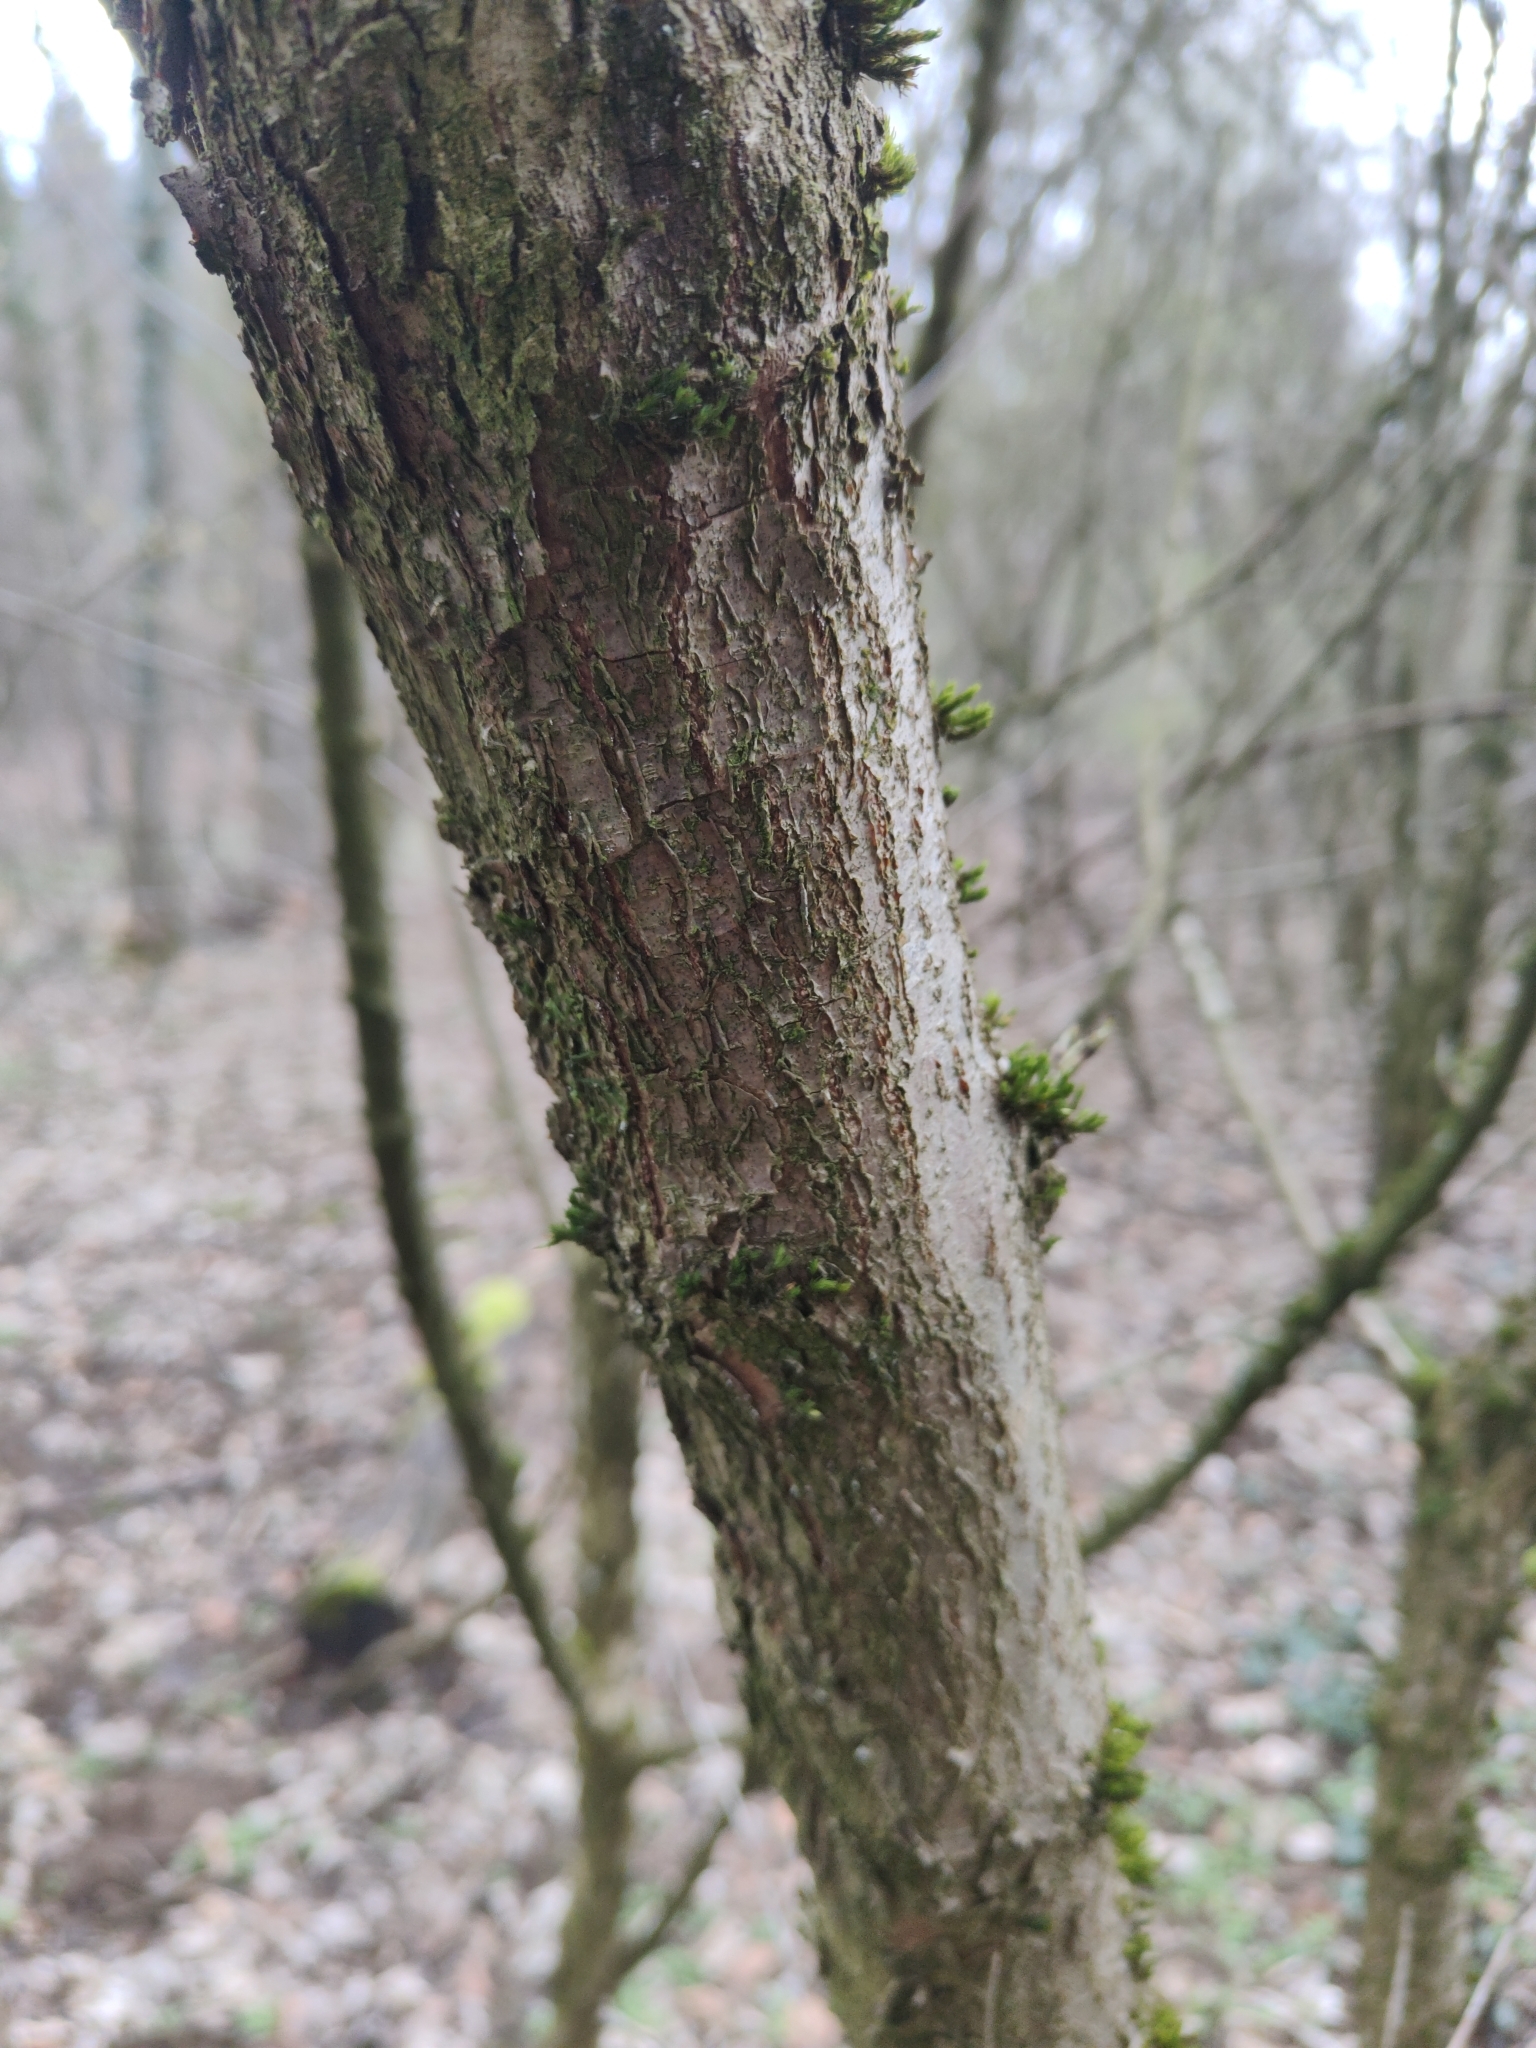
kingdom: Plantae
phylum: Tracheophyta
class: Magnoliopsida
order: Cornales
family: Cornaceae
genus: Cornus
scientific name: Cornus mas
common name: Cornelian-cherry
